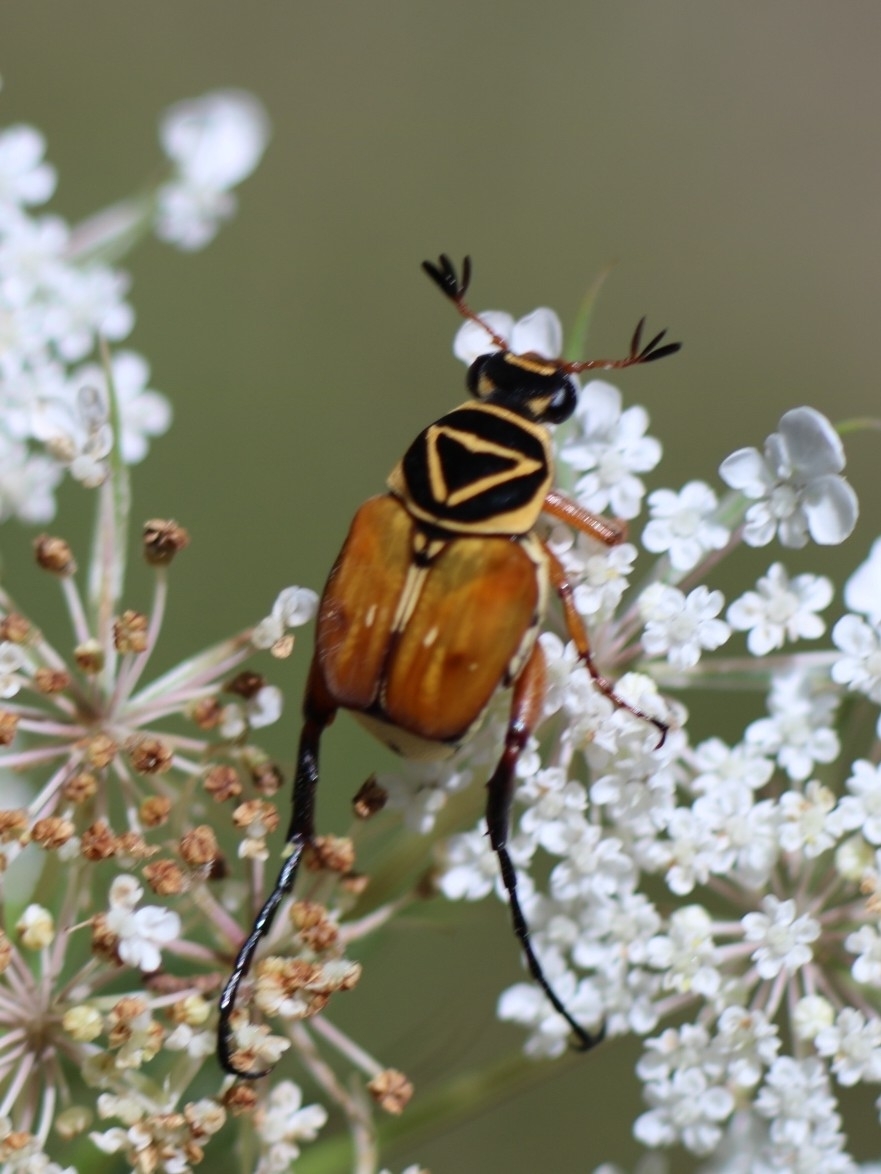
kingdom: Animalia
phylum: Arthropoda
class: Insecta
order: Coleoptera
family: Scarabaeidae
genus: Trigonopeltastes
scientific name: Trigonopeltastes delta
